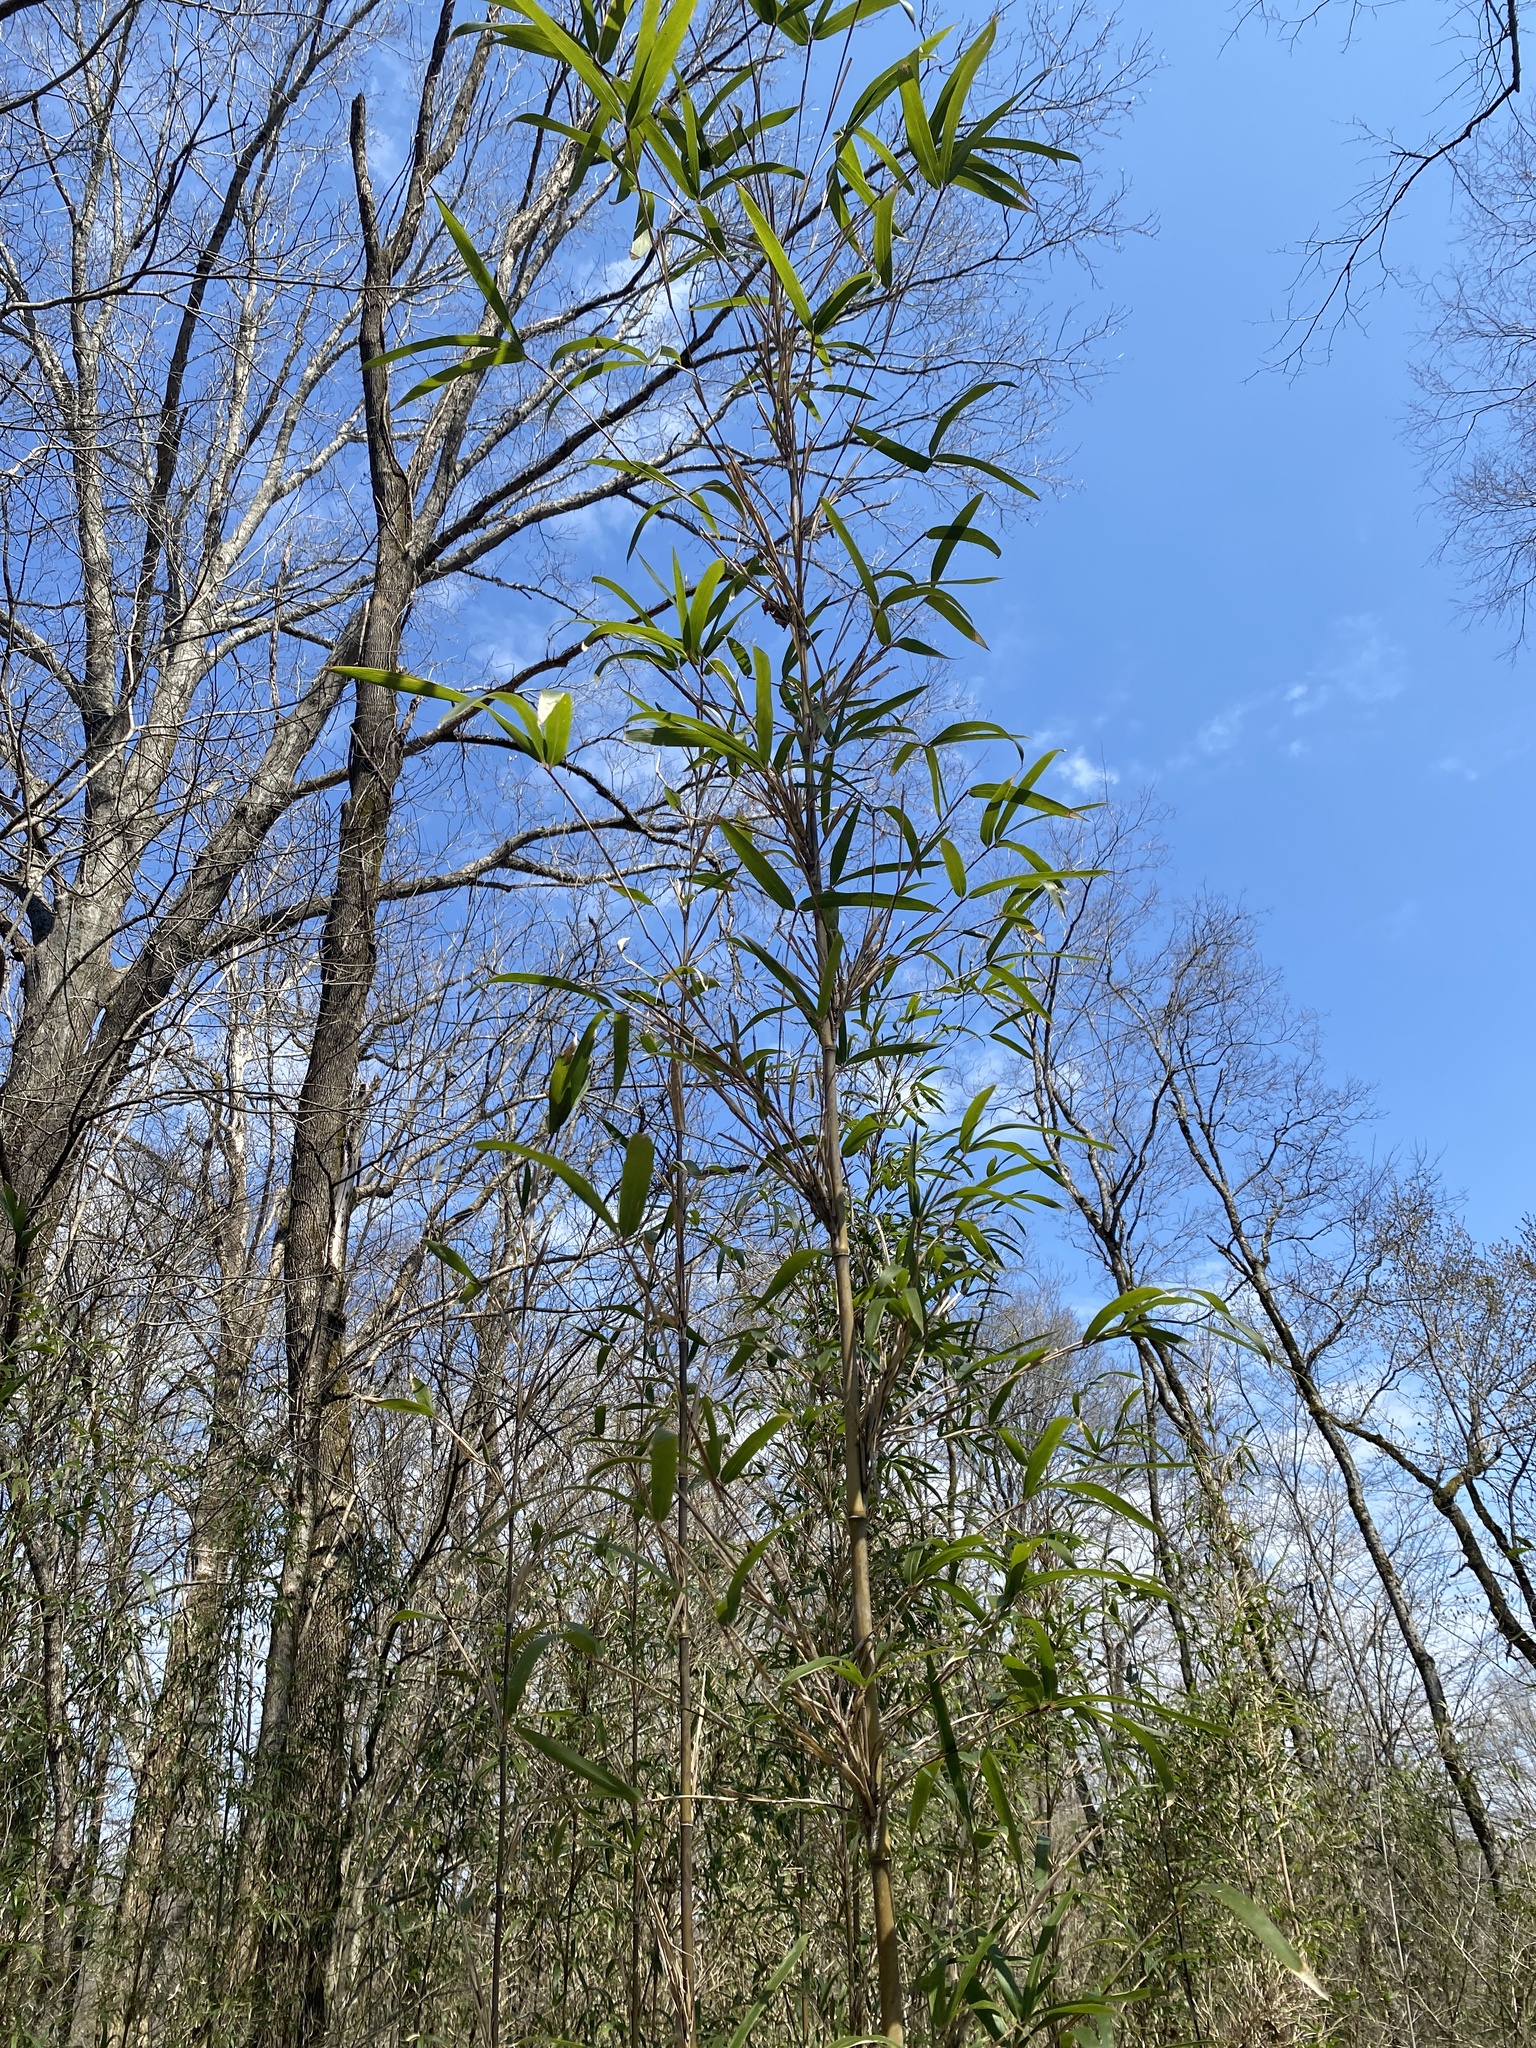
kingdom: Plantae
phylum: Tracheophyta
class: Liliopsida
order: Poales
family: Poaceae
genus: Arundinaria
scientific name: Arundinaria gigantea
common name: Giant cane
